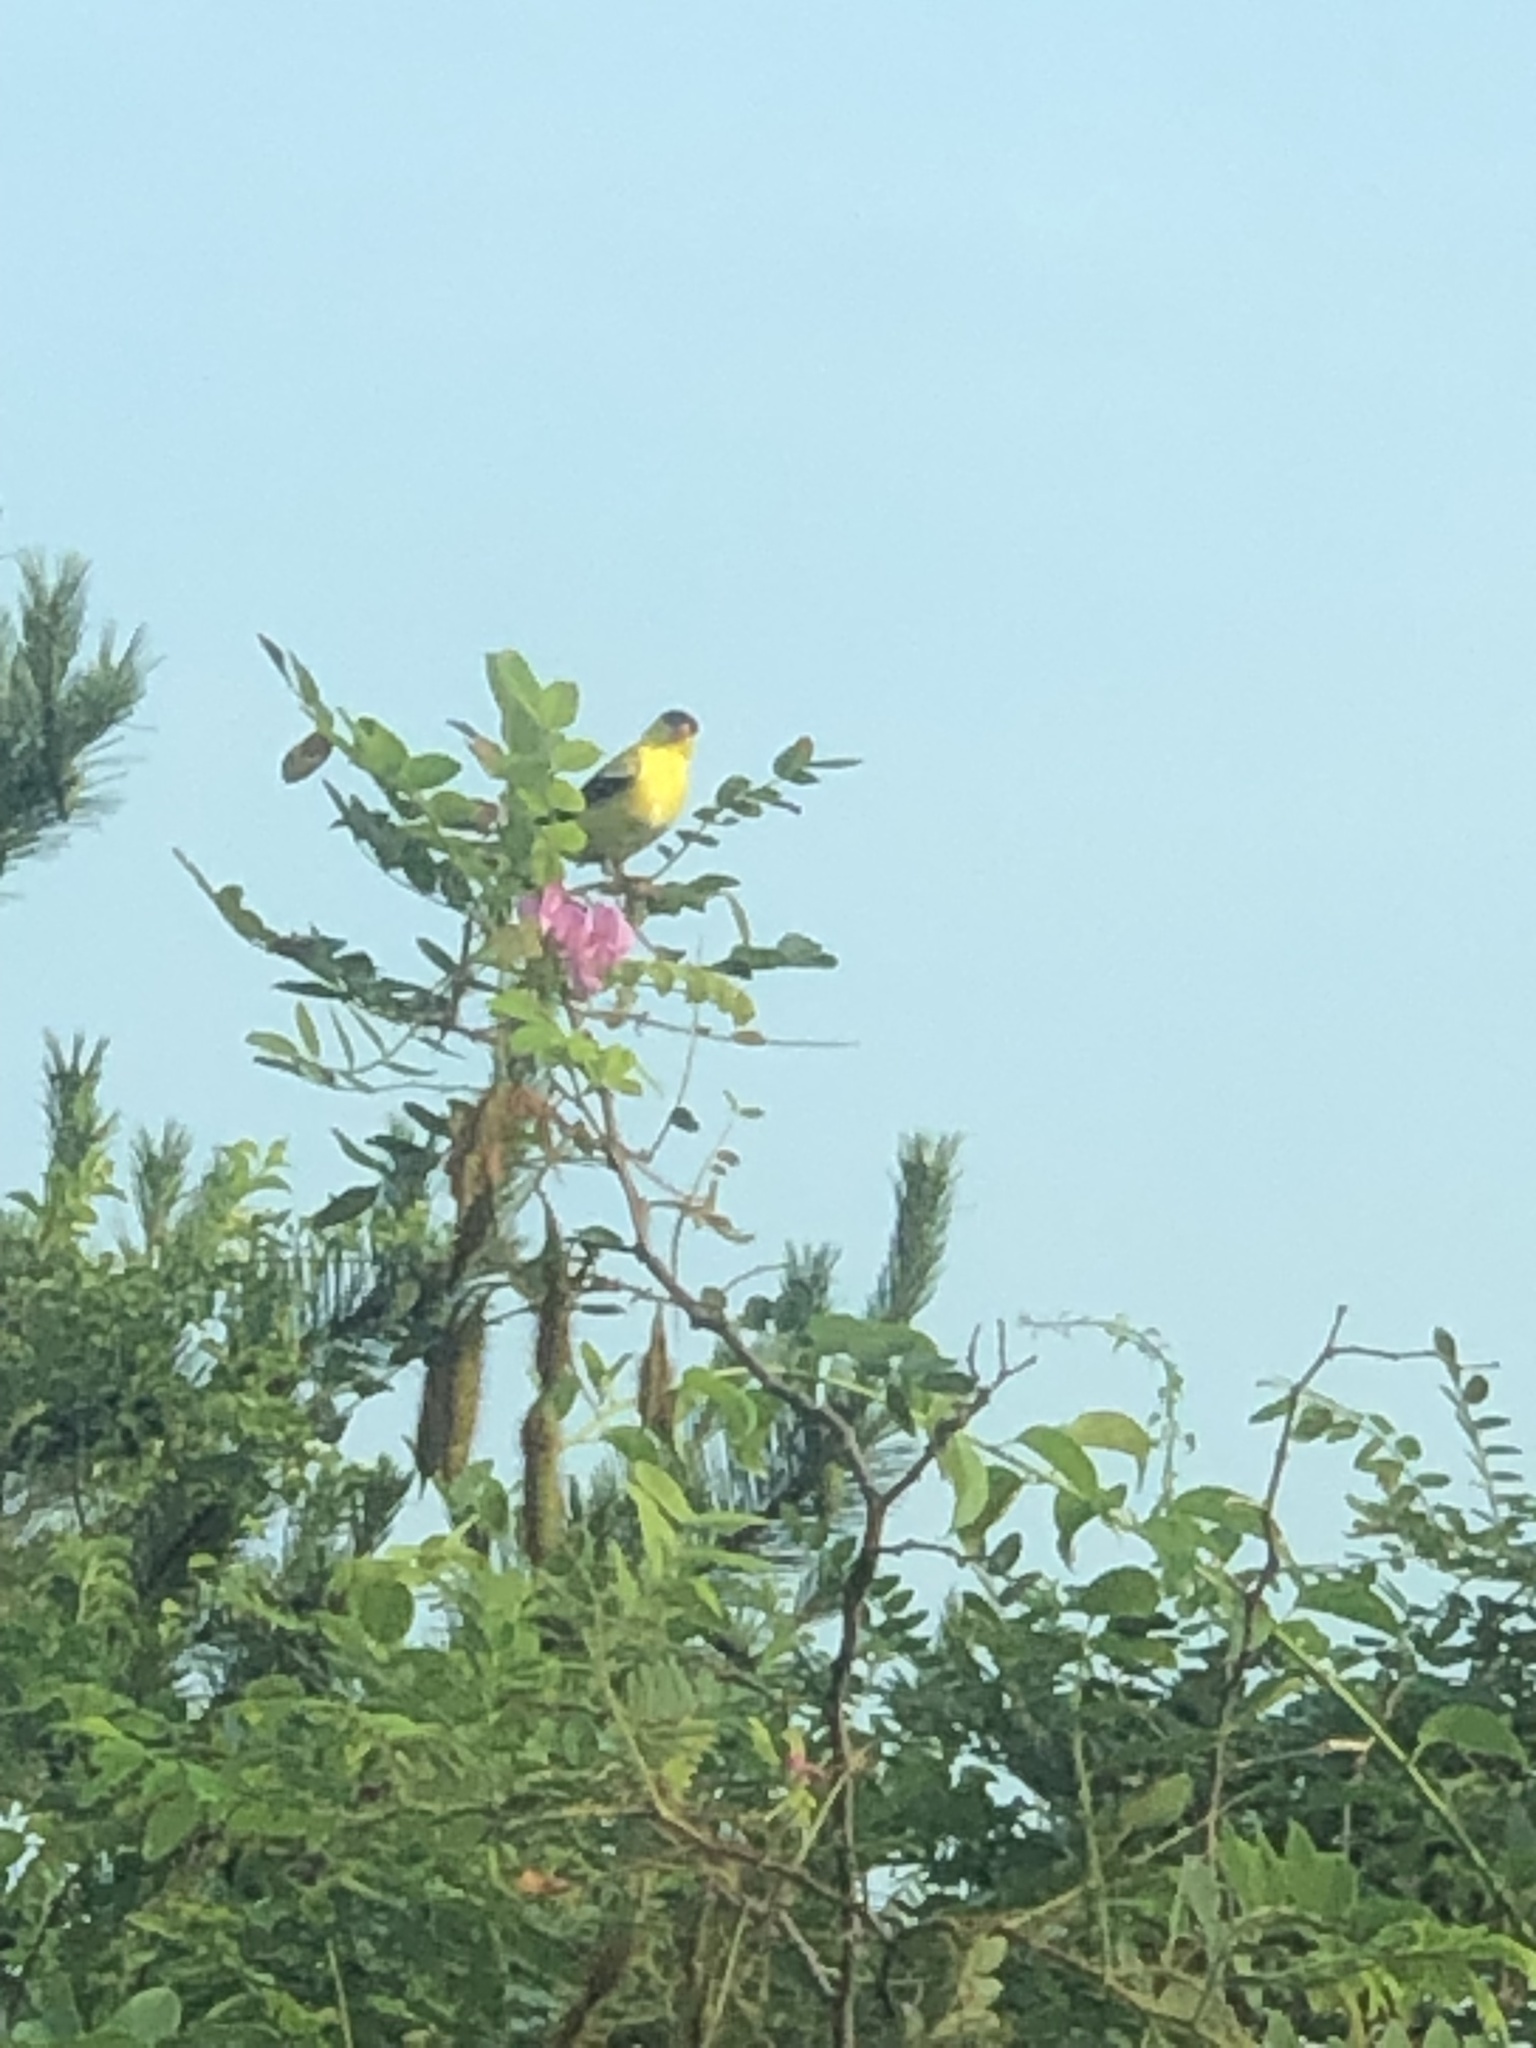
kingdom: Animalia
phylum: Chordata
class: Aves
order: Passeriformes
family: Fringillidae
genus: Spinus
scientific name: Spinus tristis
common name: American goldfinch
